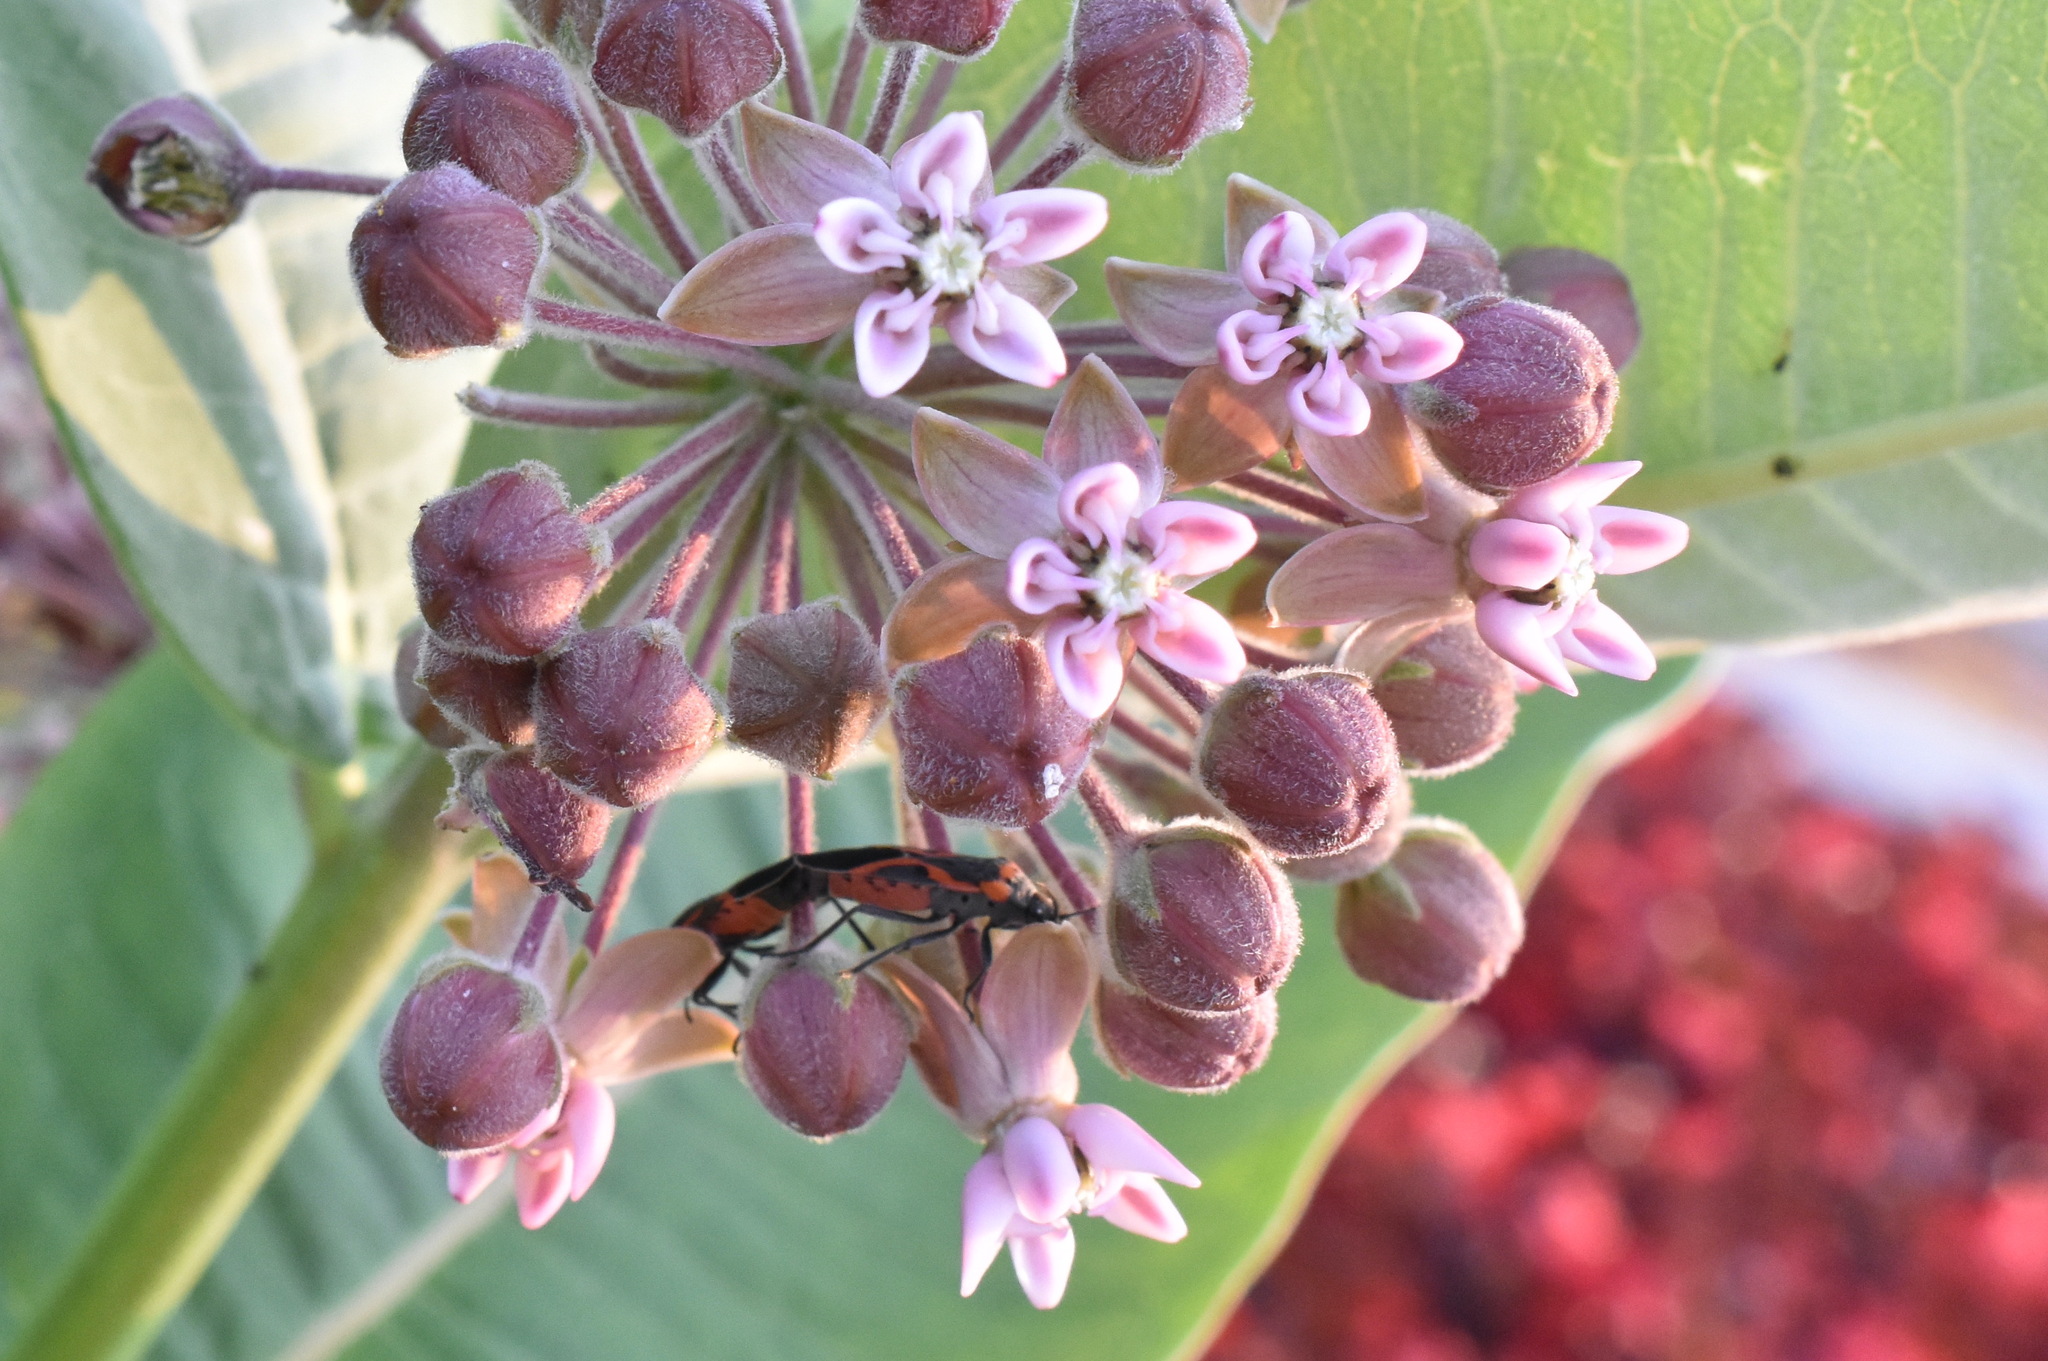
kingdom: Animalia
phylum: Arthropoda
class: Insecta
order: Hemiptera
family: Lygaeidae
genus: Lygaeus
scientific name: Lygaeus kalmii
